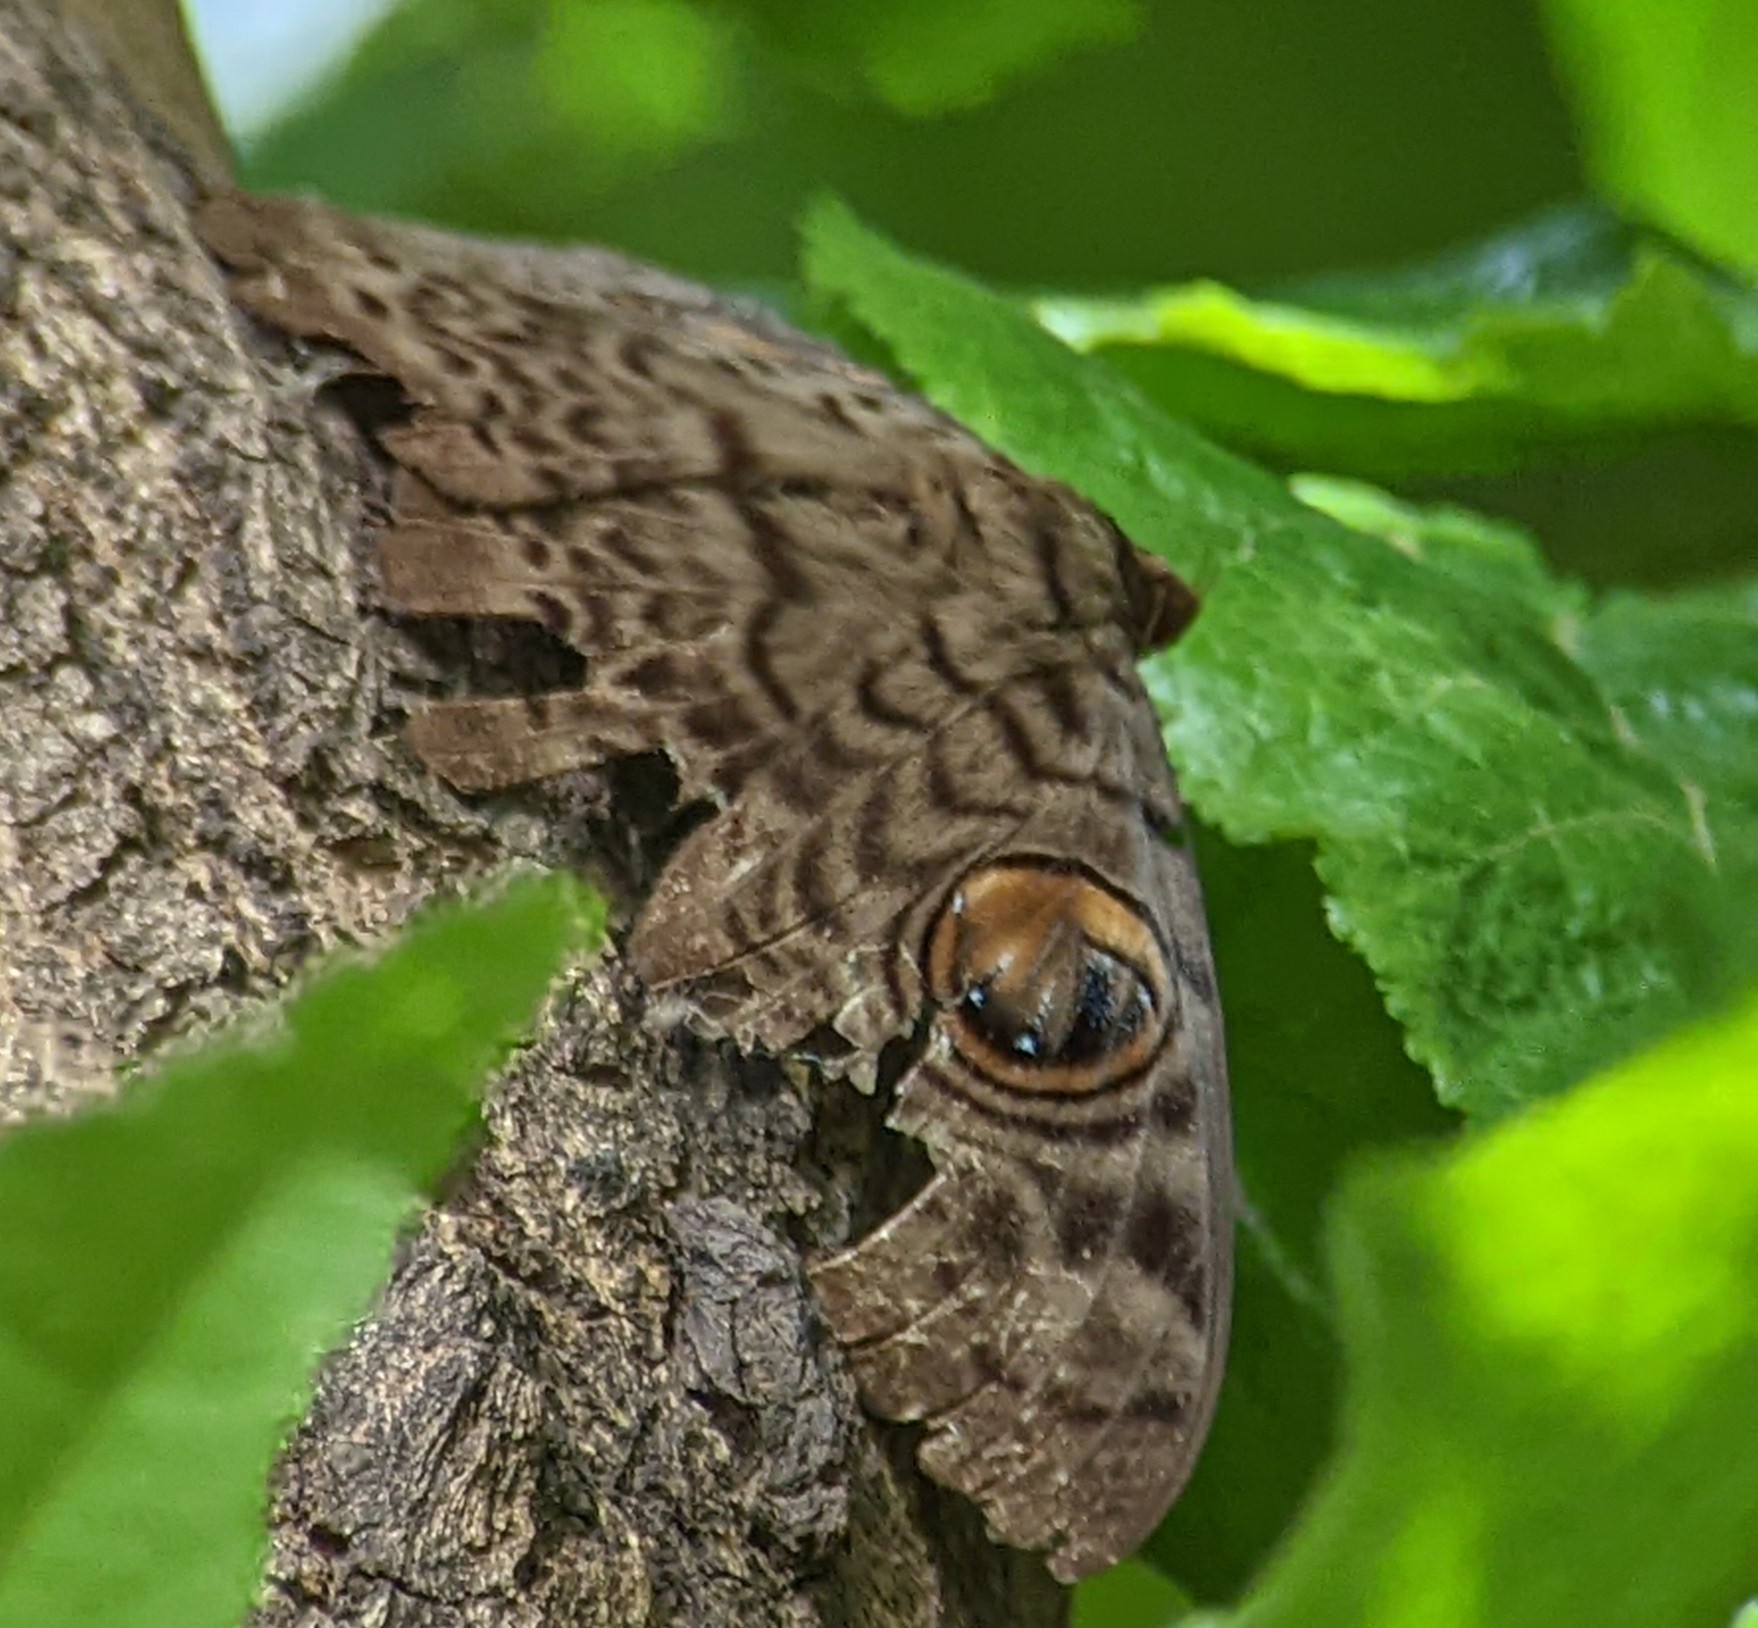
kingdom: Animalia
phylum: Arthropoda
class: Insecta
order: Lepidoptera
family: Erebidae
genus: Erebus
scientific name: Erebus macrops
